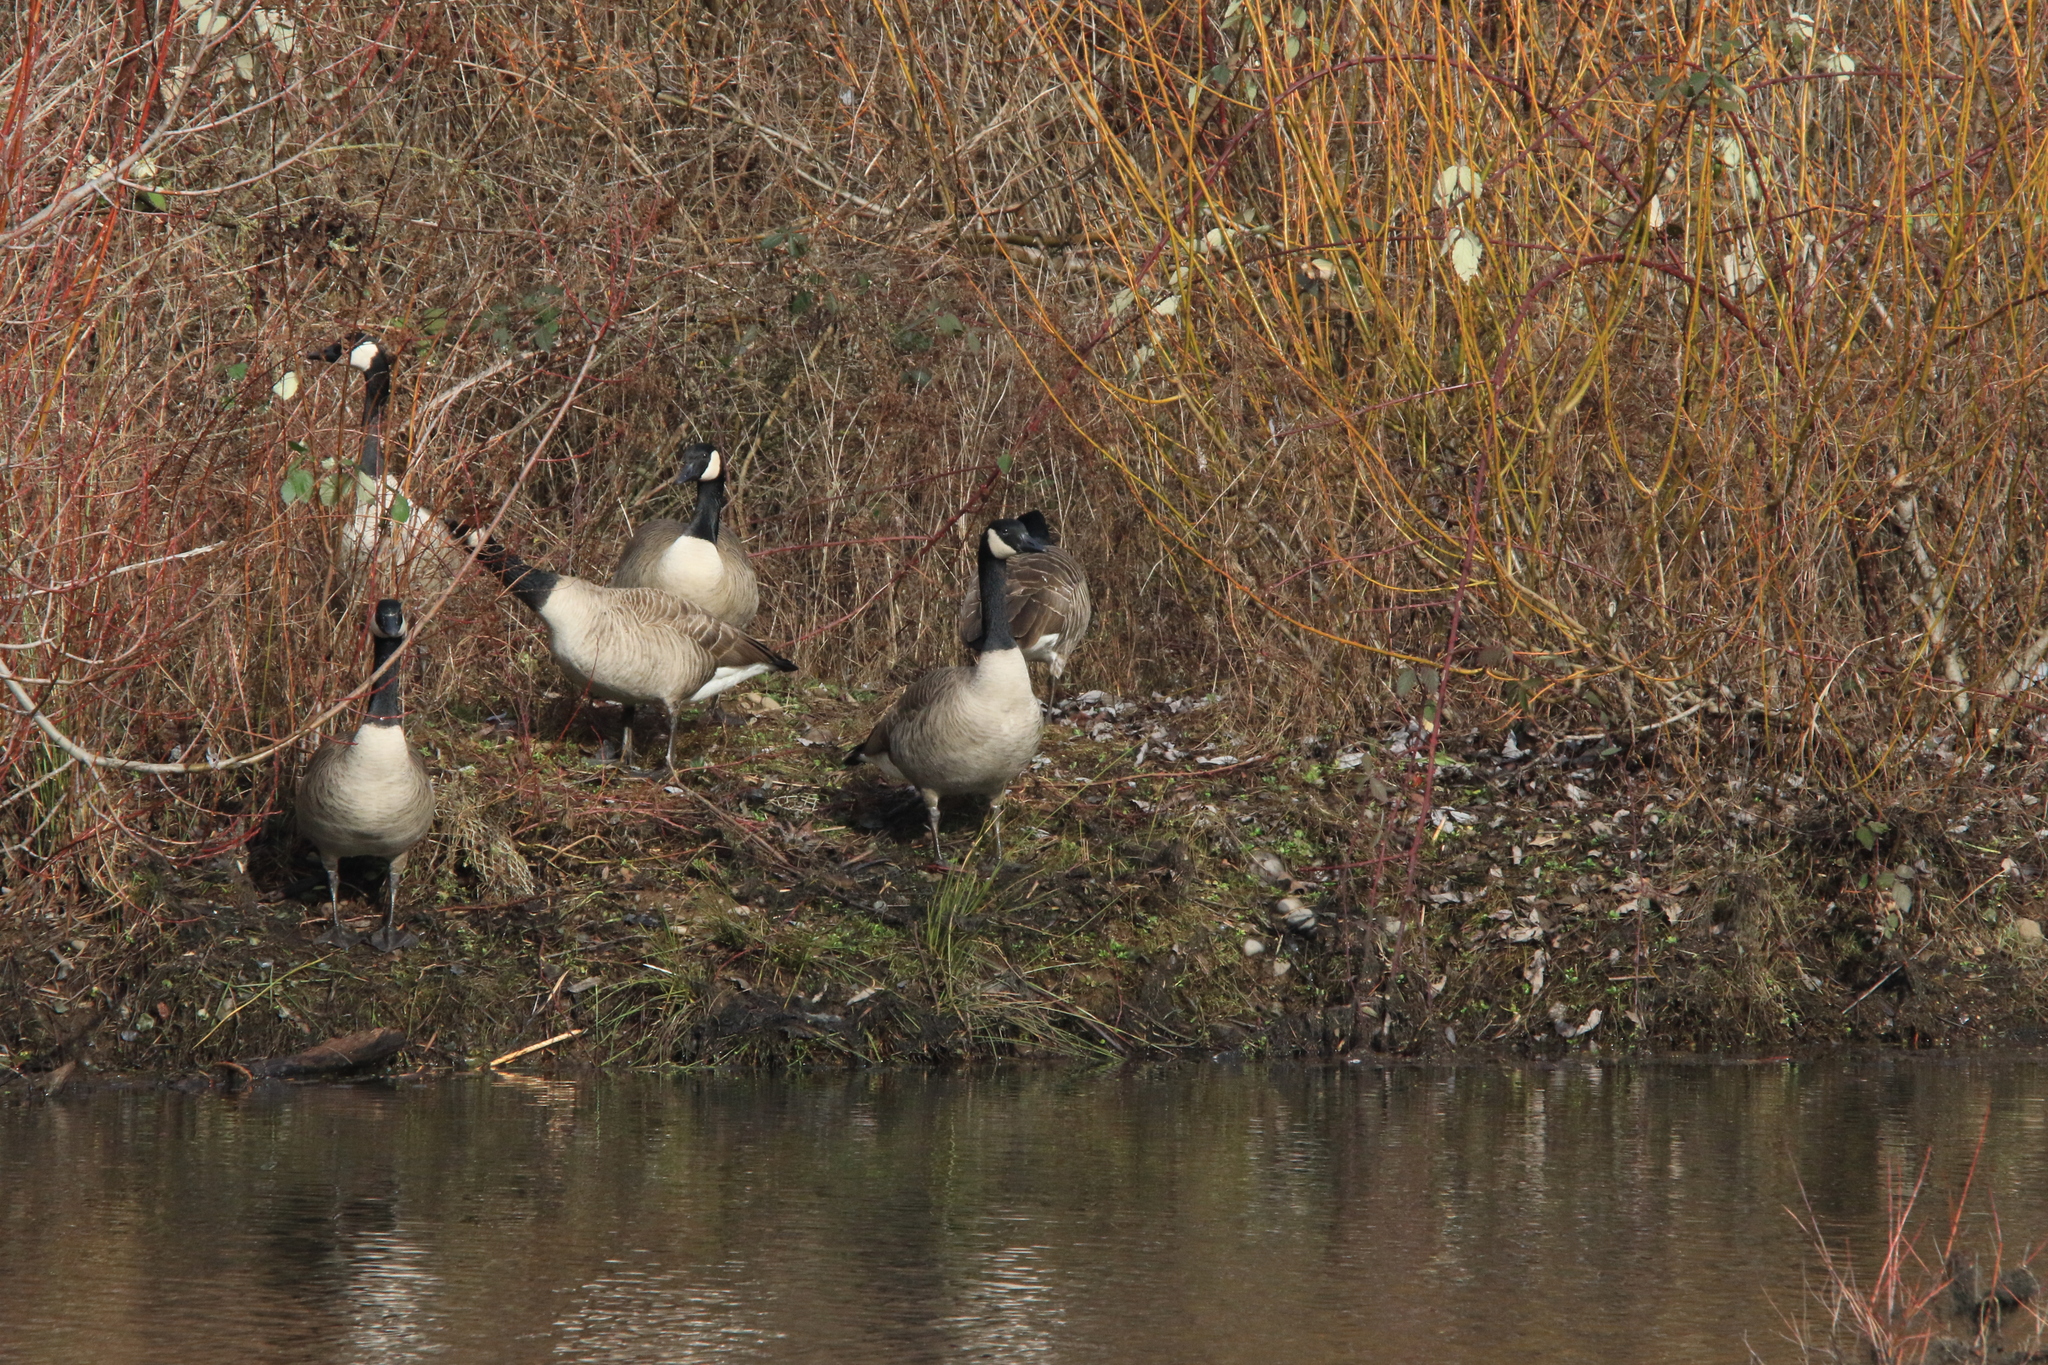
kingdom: Animalia
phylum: Chordata
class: Aves
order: Anseriformes
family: Anatidae
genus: Branta
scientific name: Branta canadensis
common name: Canada goose
